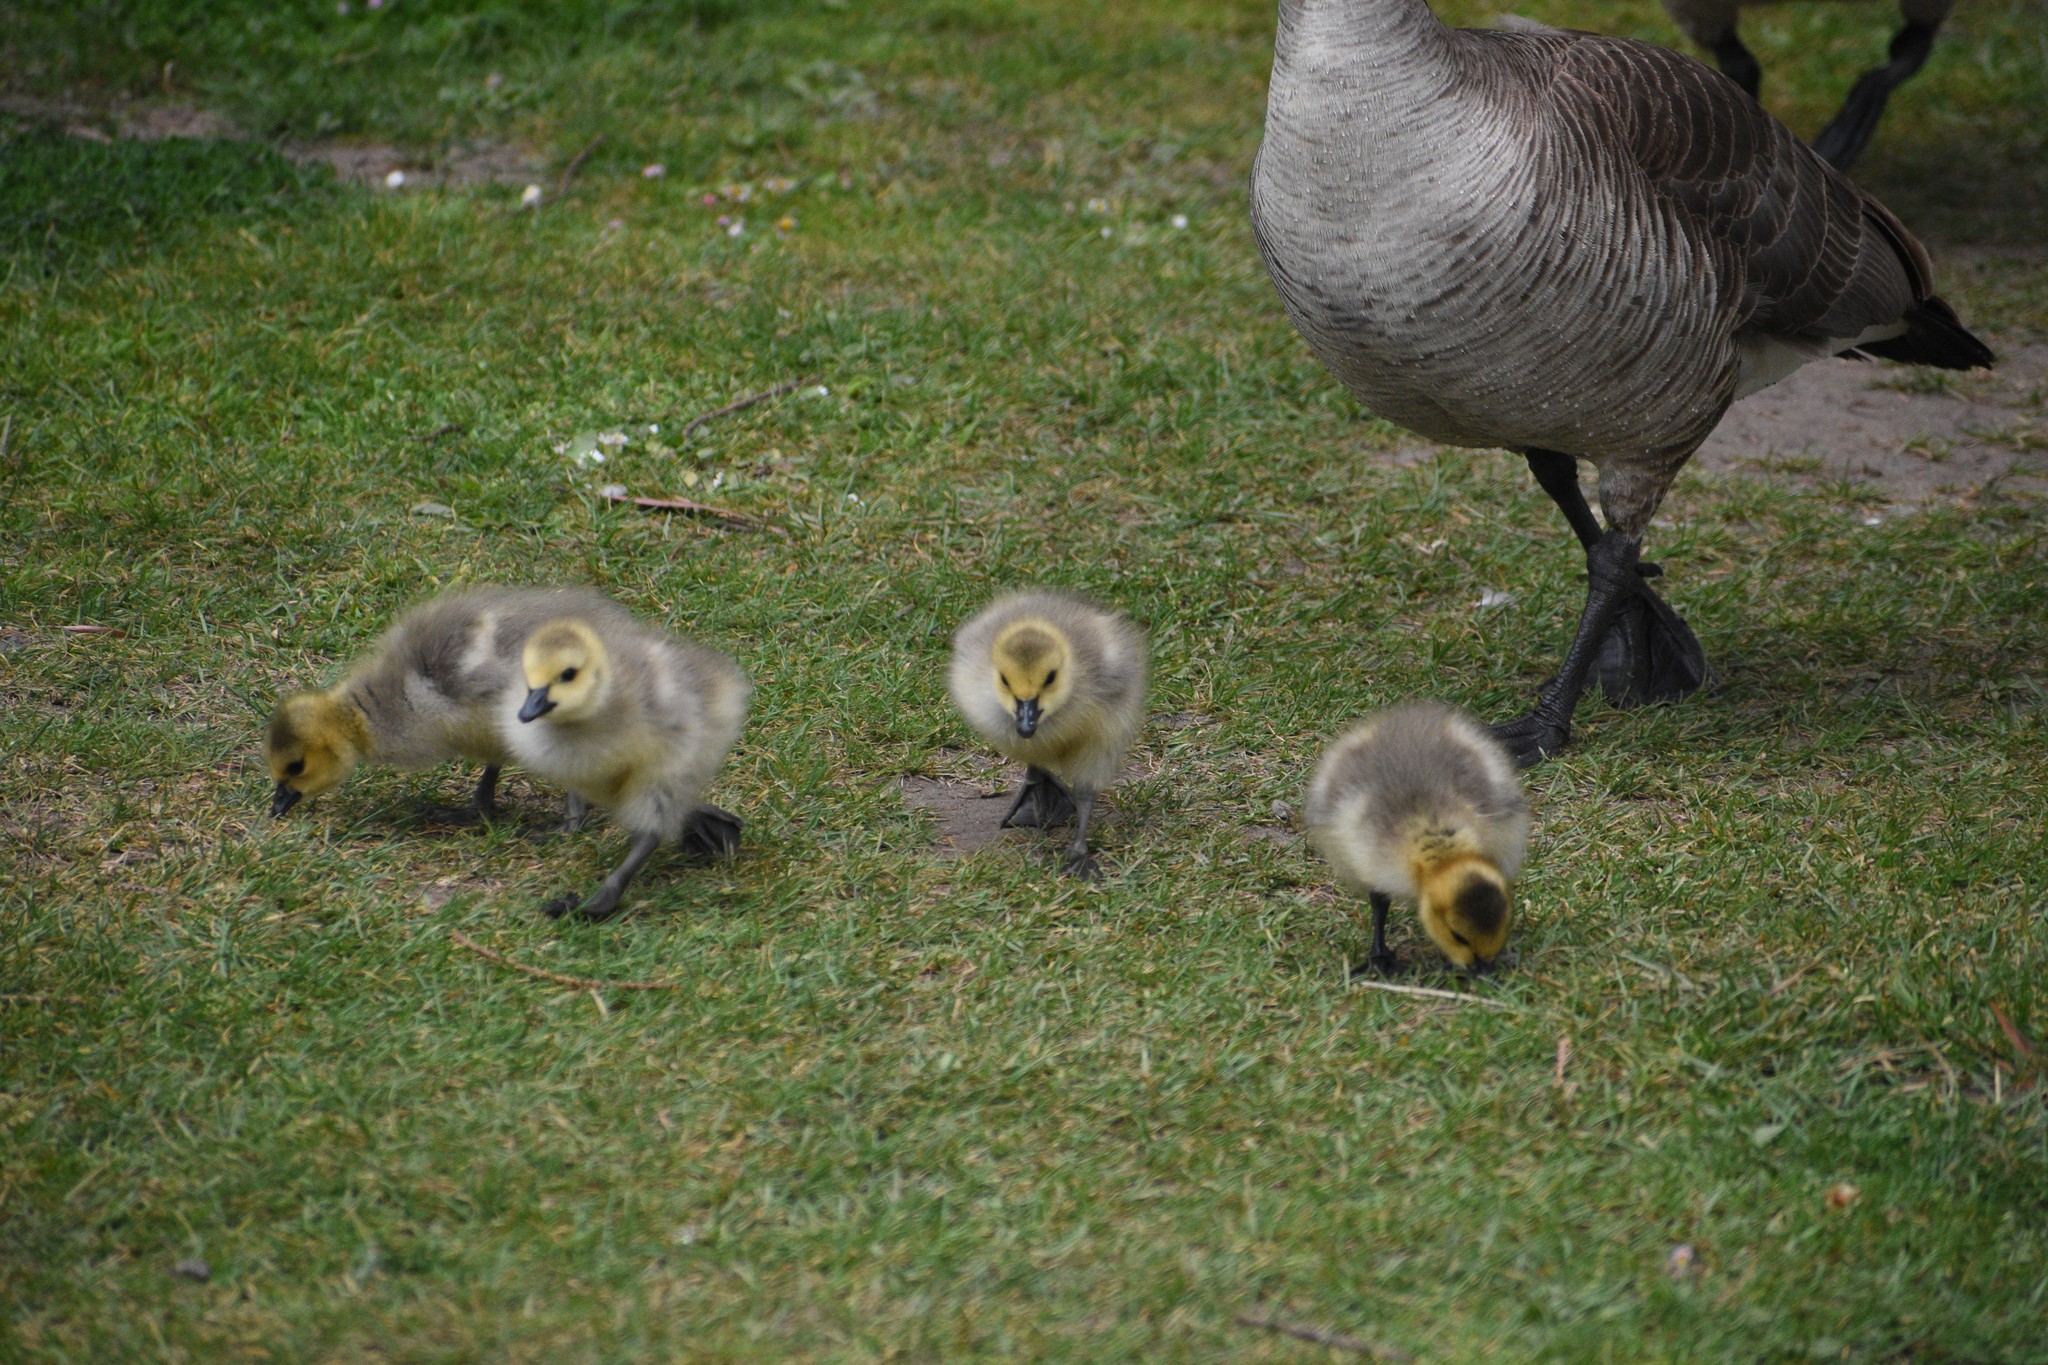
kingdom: Animalia
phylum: Chordata
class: Aves
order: Anseriformes
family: Anatidae
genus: Branta
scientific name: Branta canadensis
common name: Canada goose
